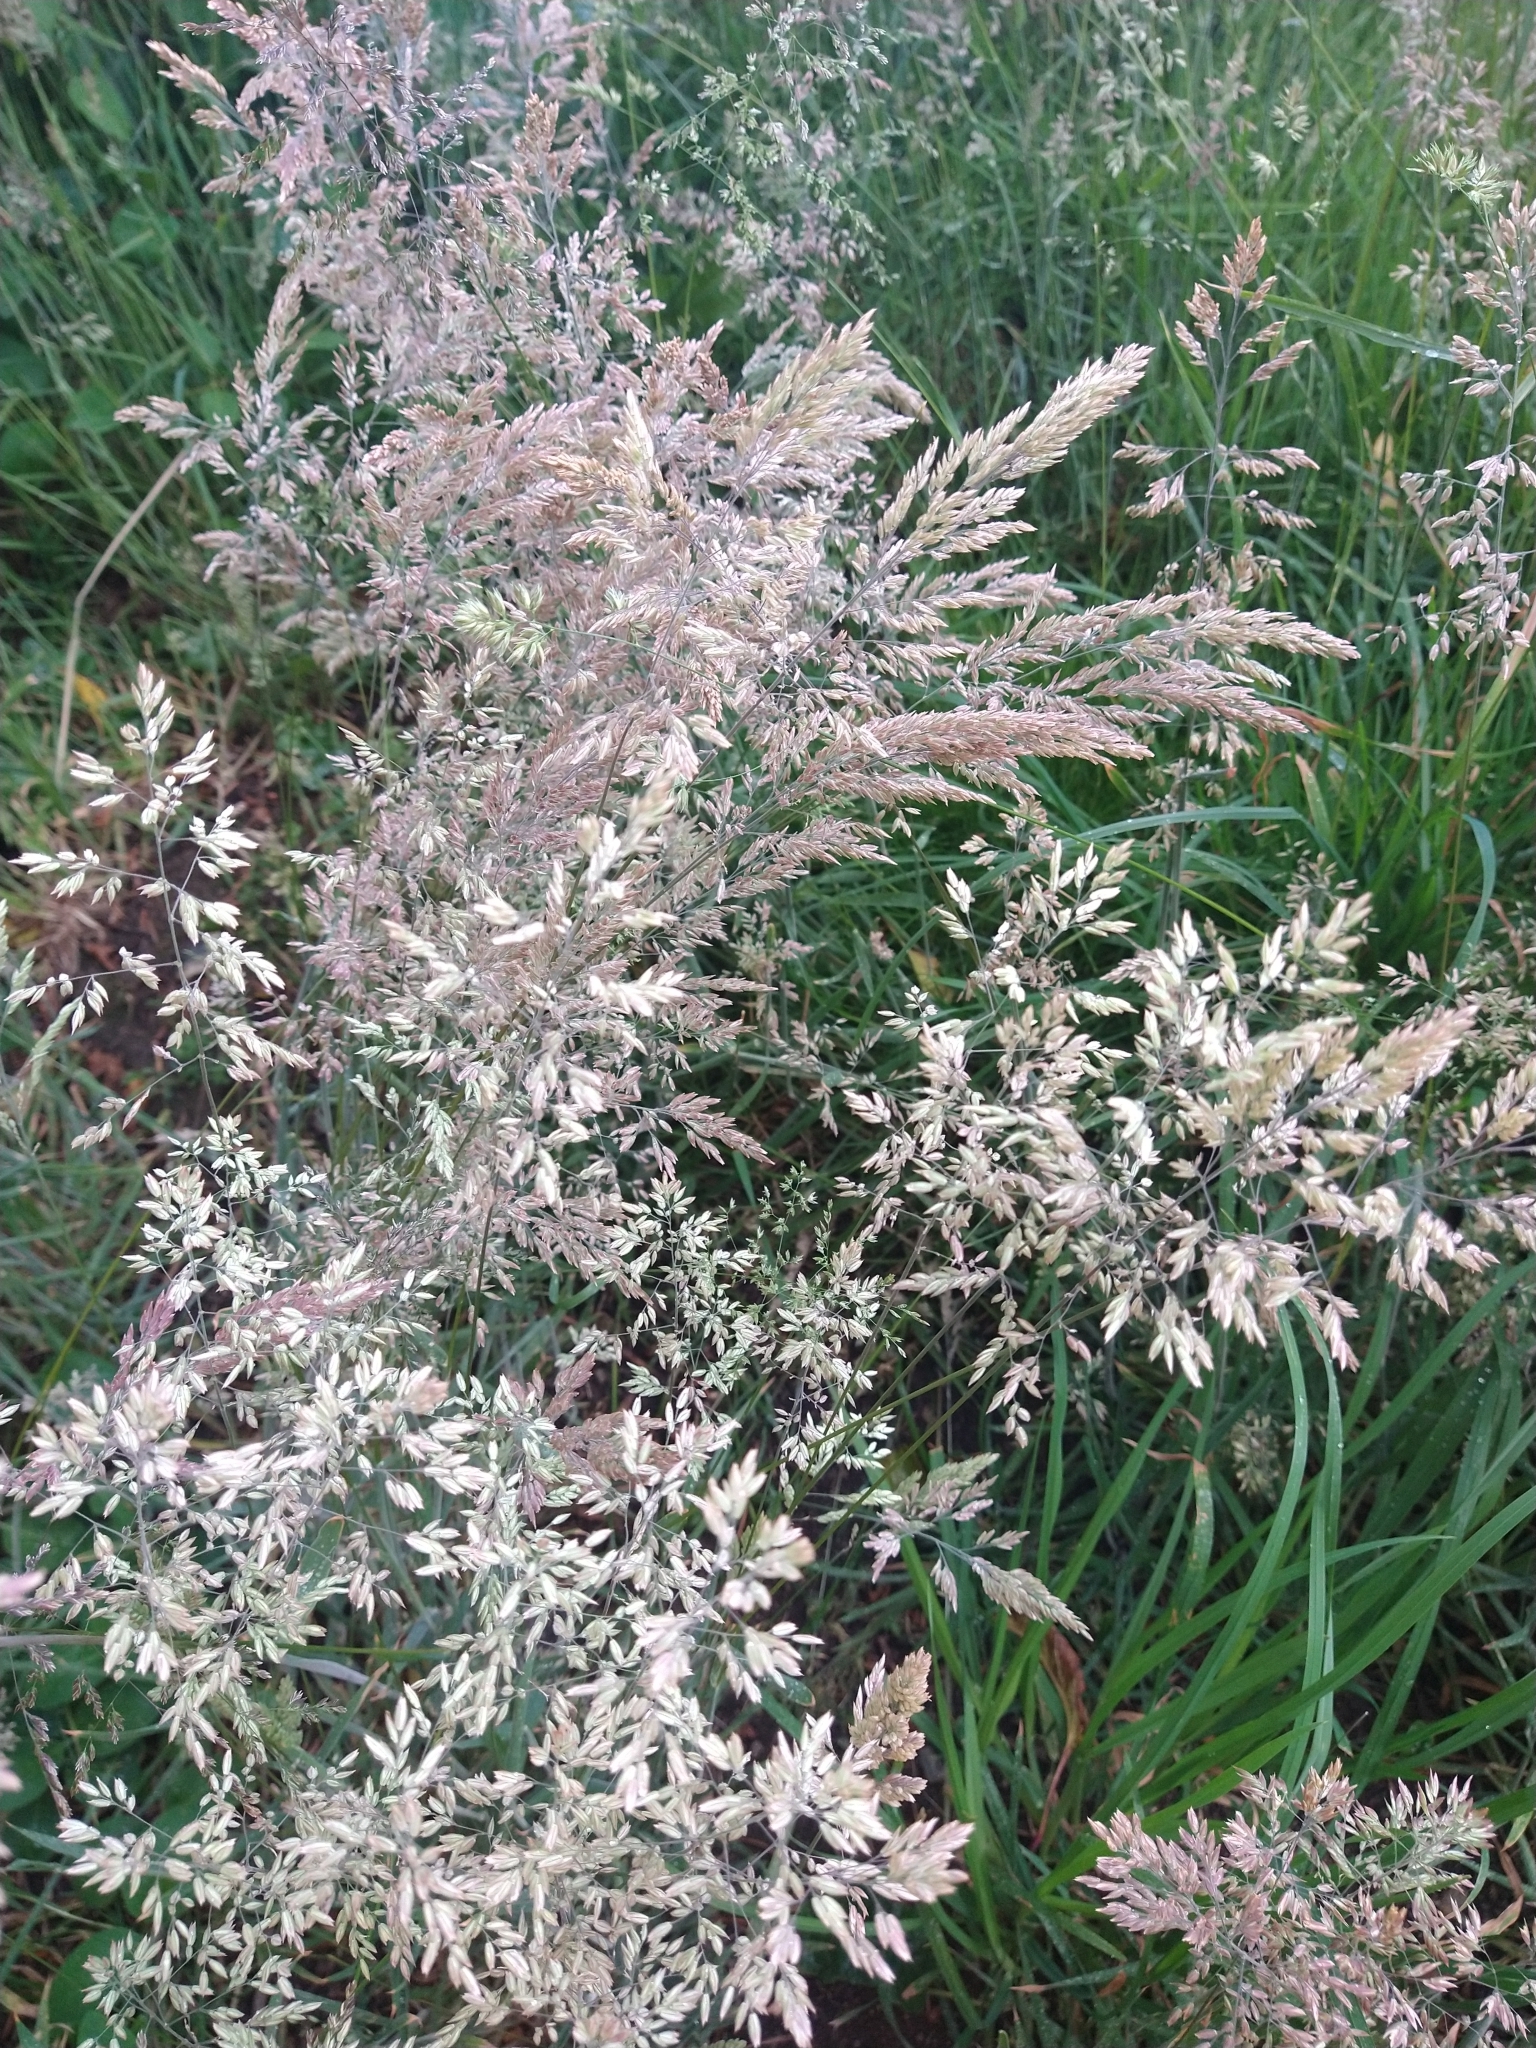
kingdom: Plantae
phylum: Tracheophyta
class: Liliopsida
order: Poales
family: Poaceae
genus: Holcus
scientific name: Holcus lanatus
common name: Yorkshire-fog
